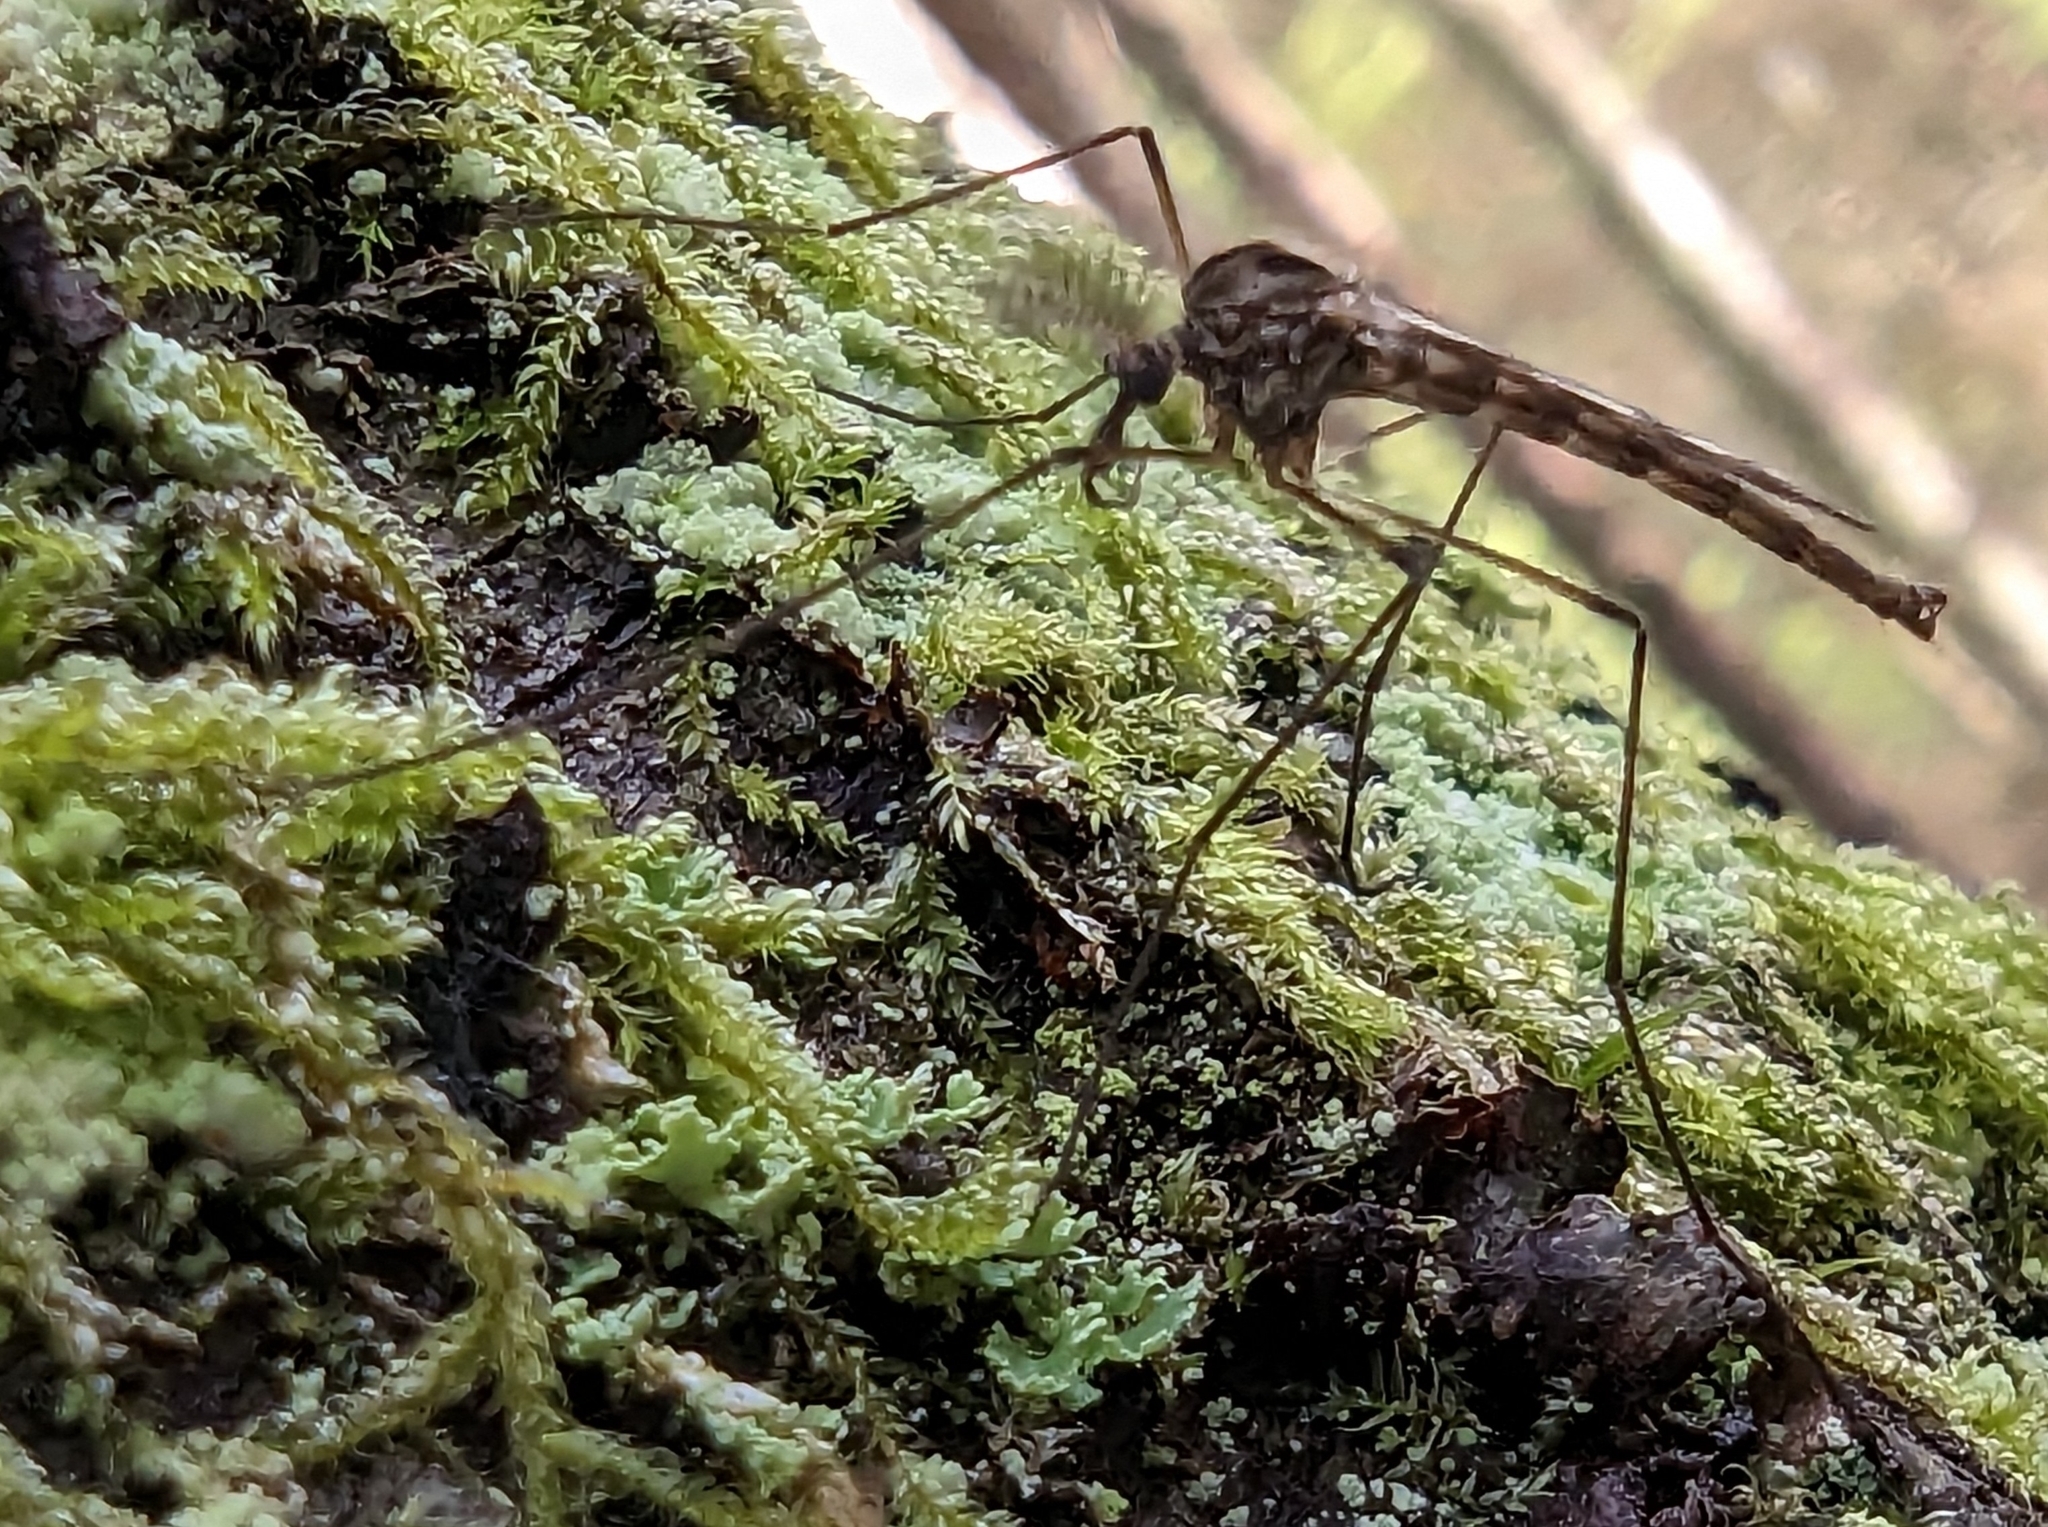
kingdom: Animalia
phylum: Arthropoda
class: Insecta
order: Diptera
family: Chaoboridae
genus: Eucorethra
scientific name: Eucorethra underwoodi
